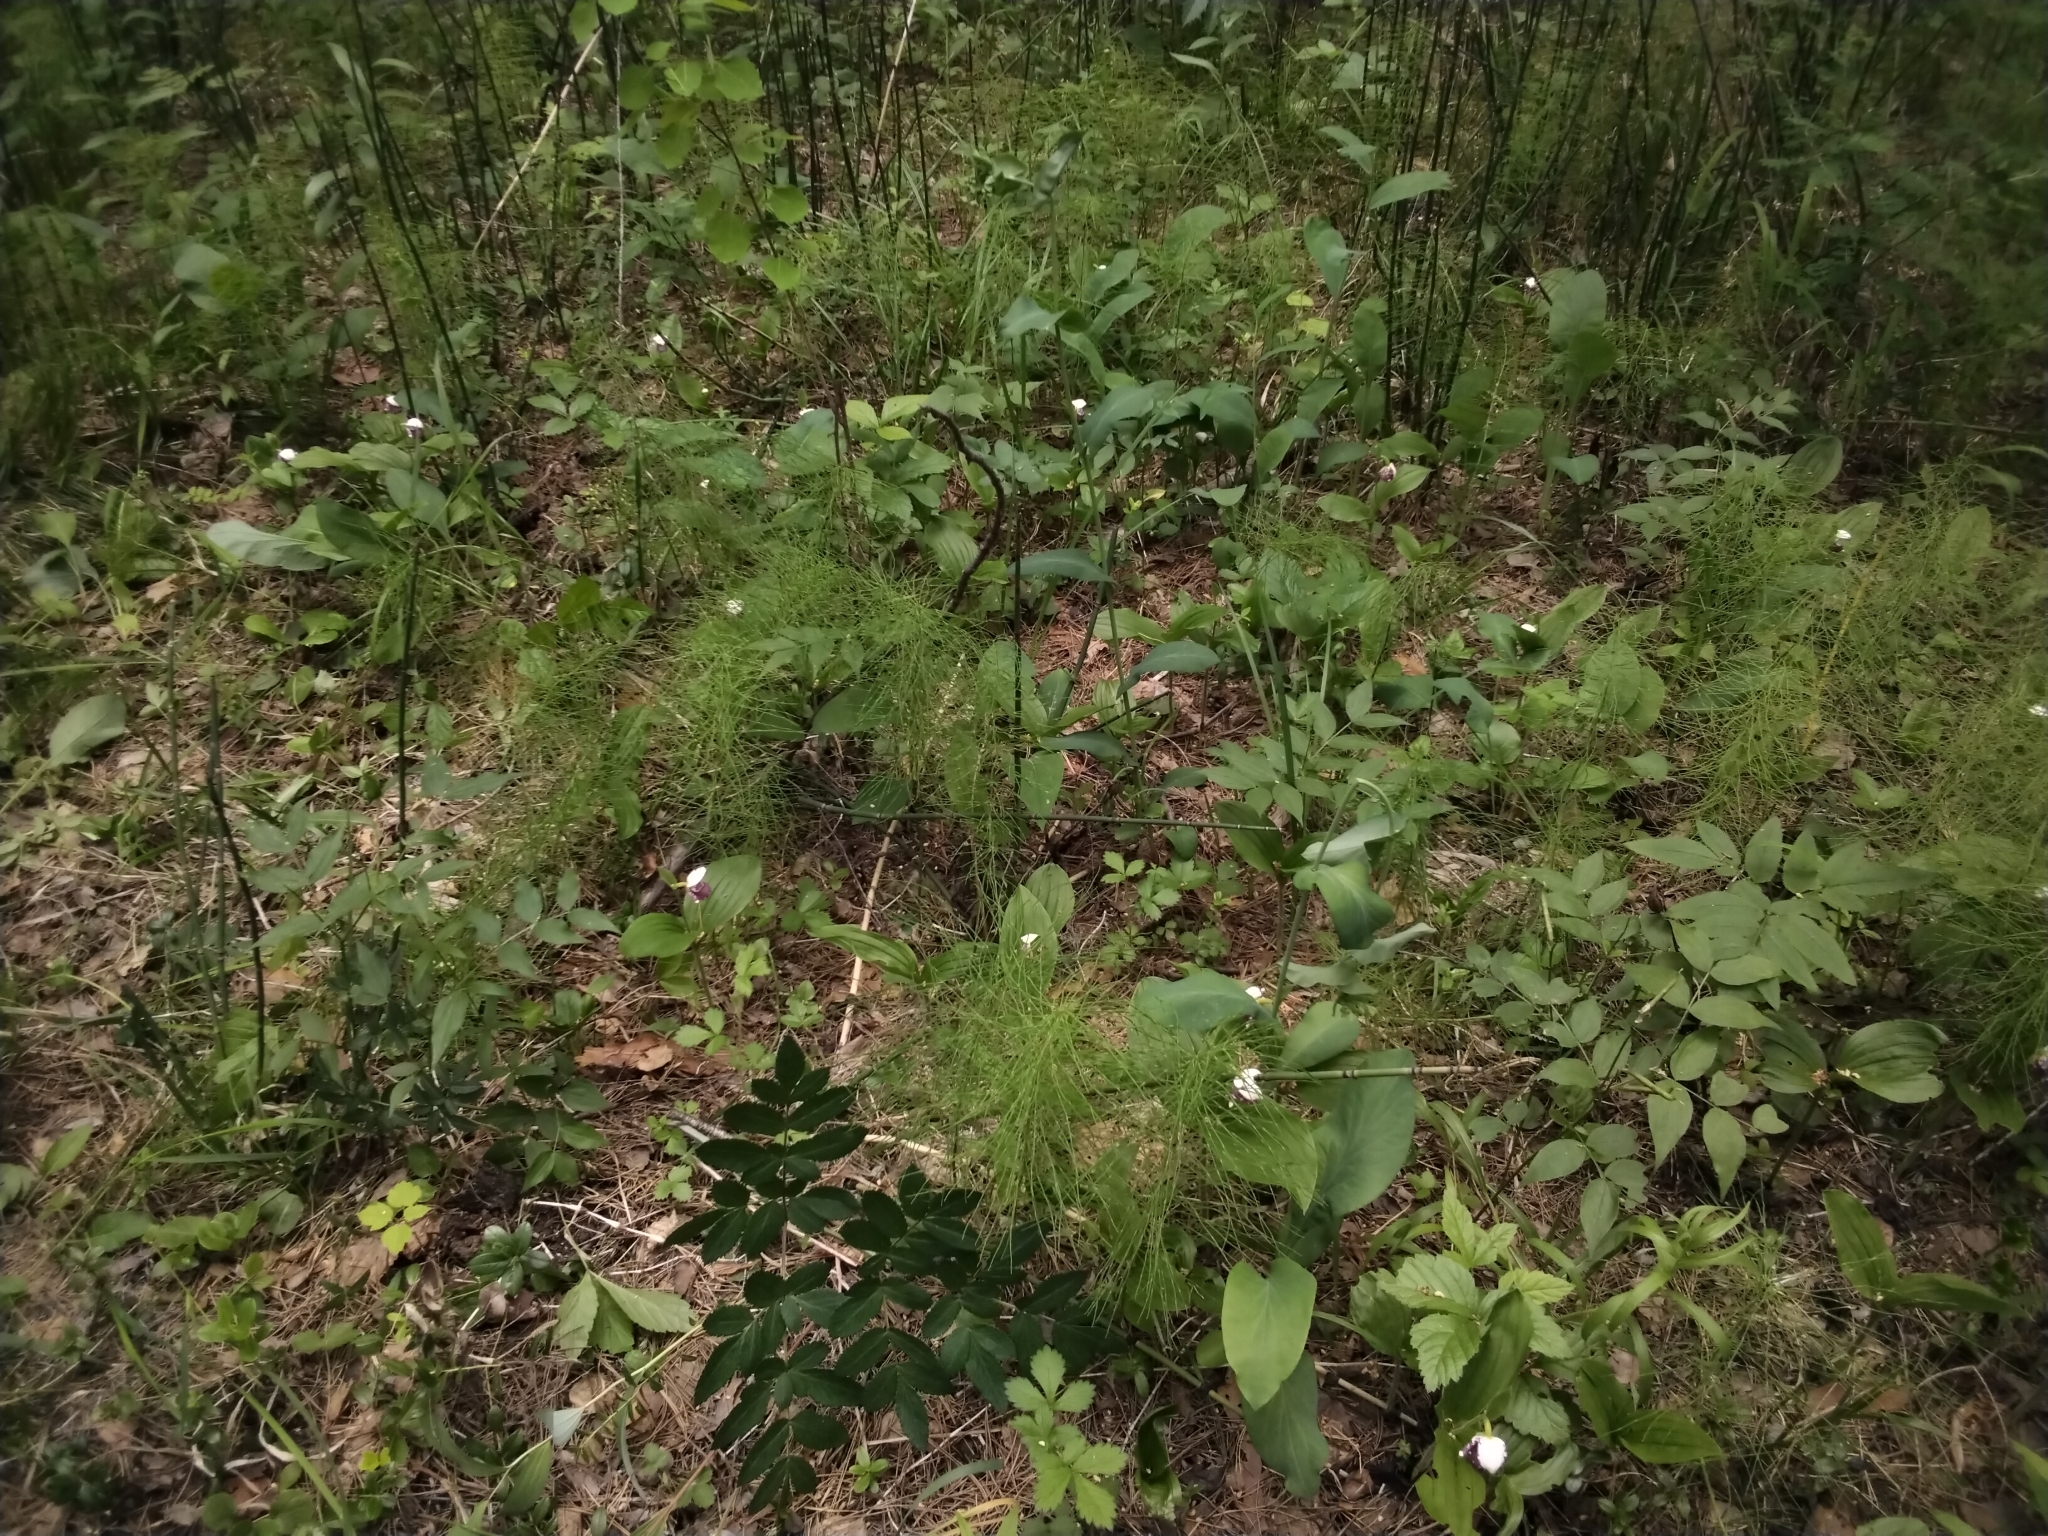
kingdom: Plantae
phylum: Tracheophyta
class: Liliopsida
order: Asparagales
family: Orchidaceae
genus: Cypripedium
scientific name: Cypripedium guttatum
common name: Pink lady slipper
